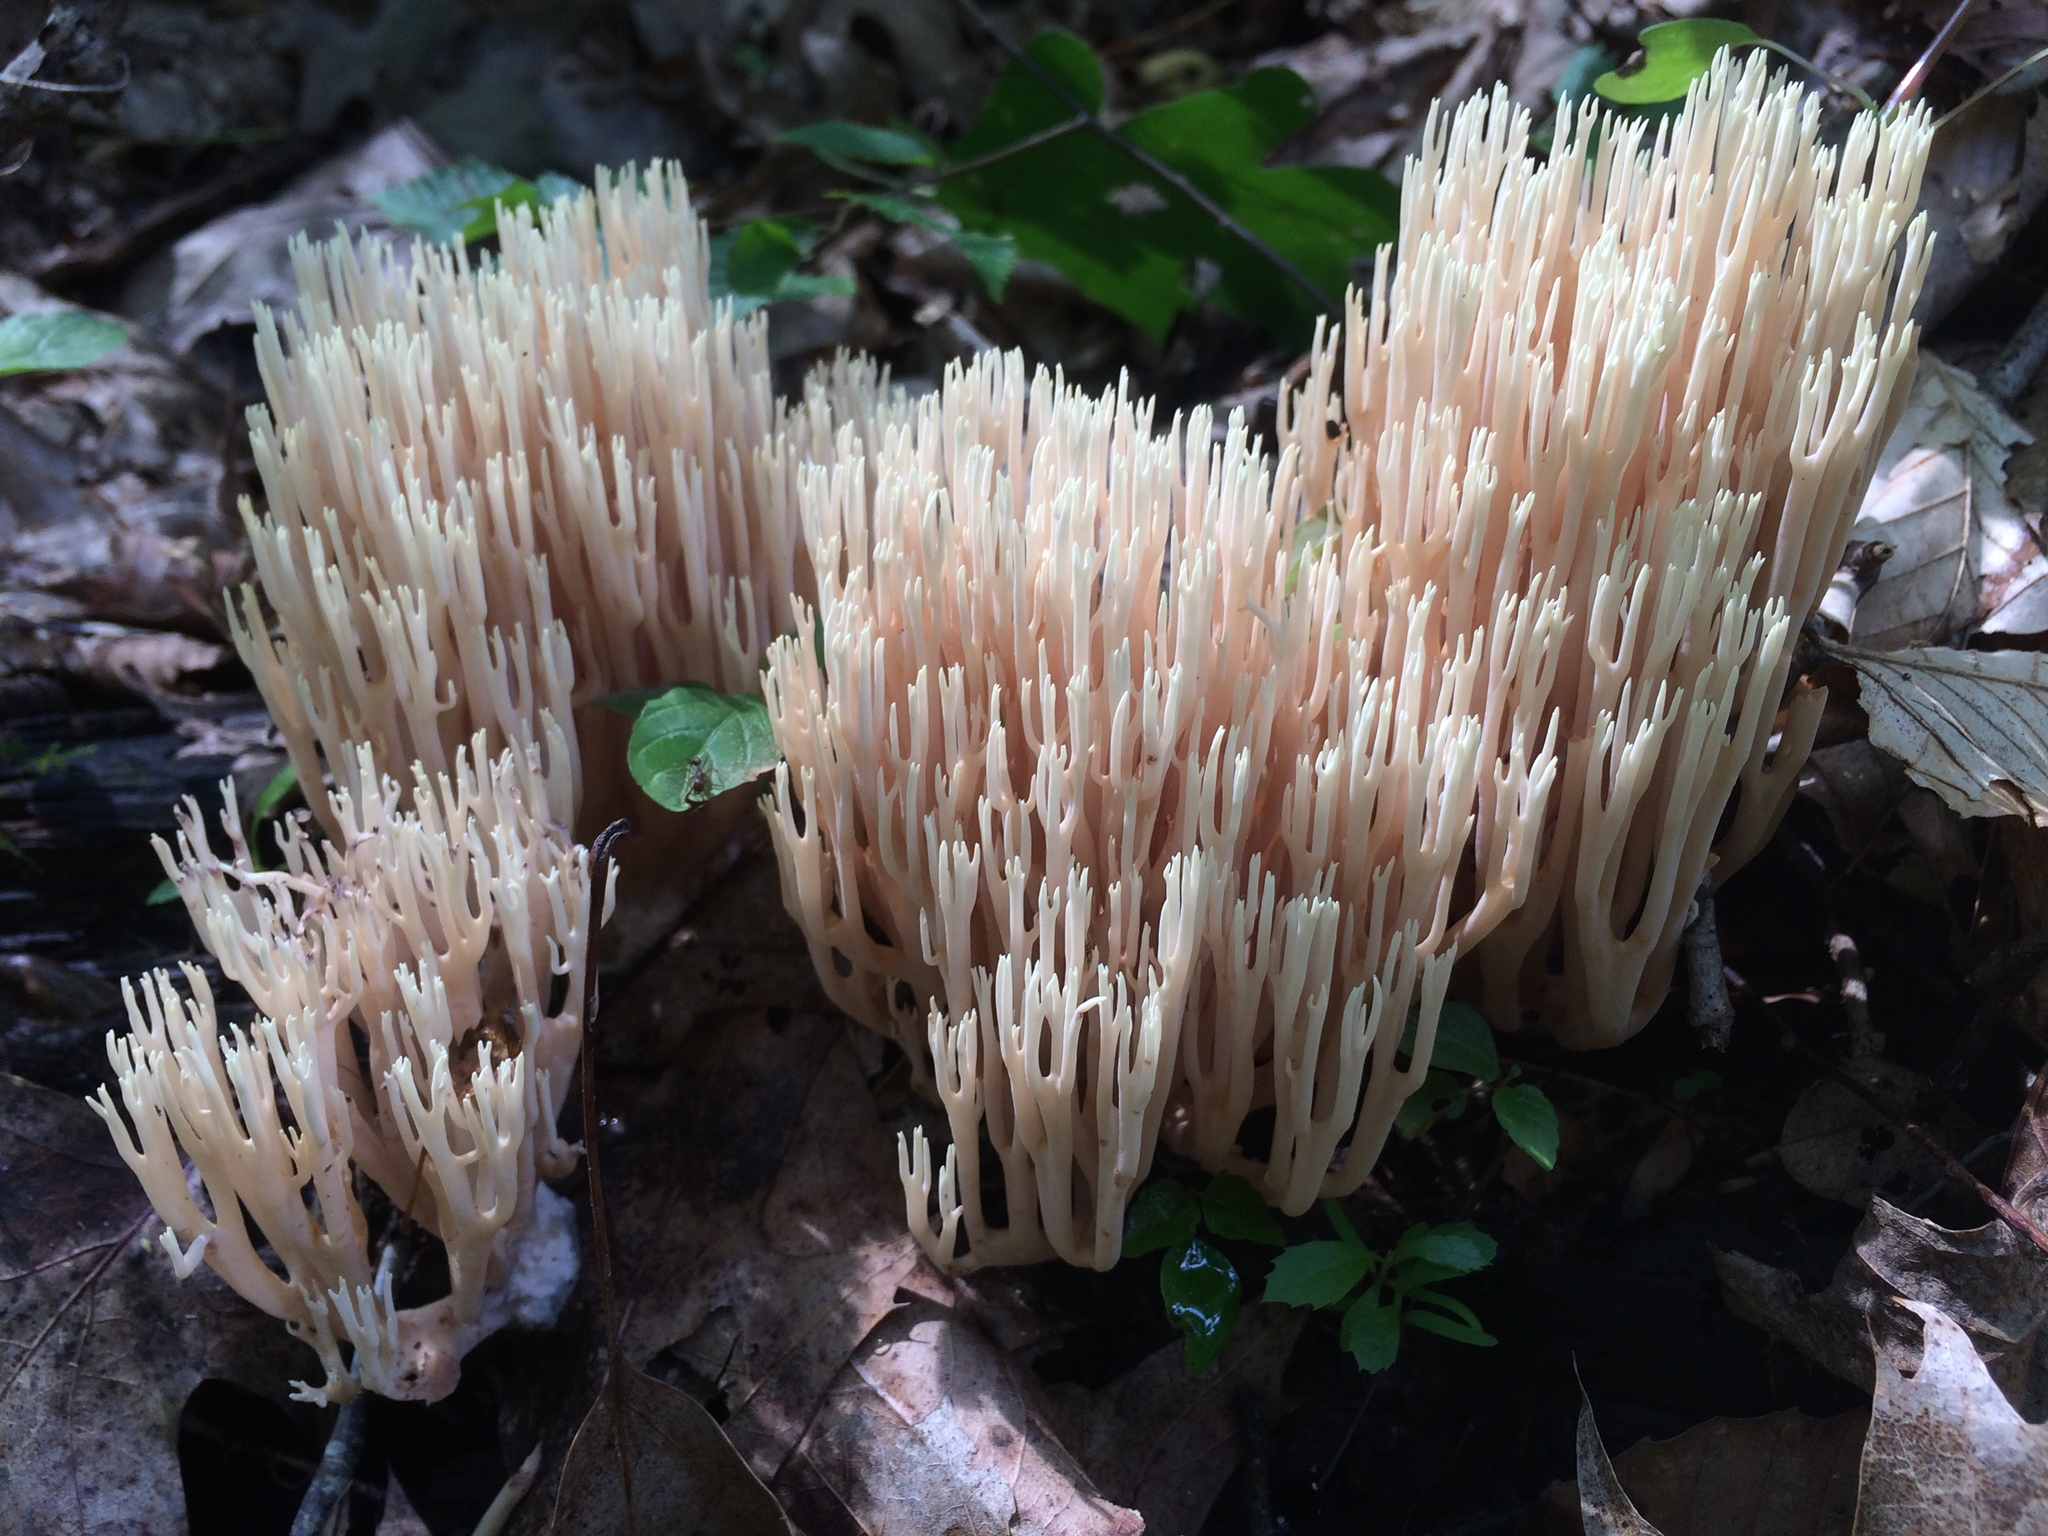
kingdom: Fungi
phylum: Basidiomycota
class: Agaricomycetes
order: Gomphales
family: Gomphaceae
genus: Ramaria
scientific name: Ramaria stricta
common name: Upright coral
